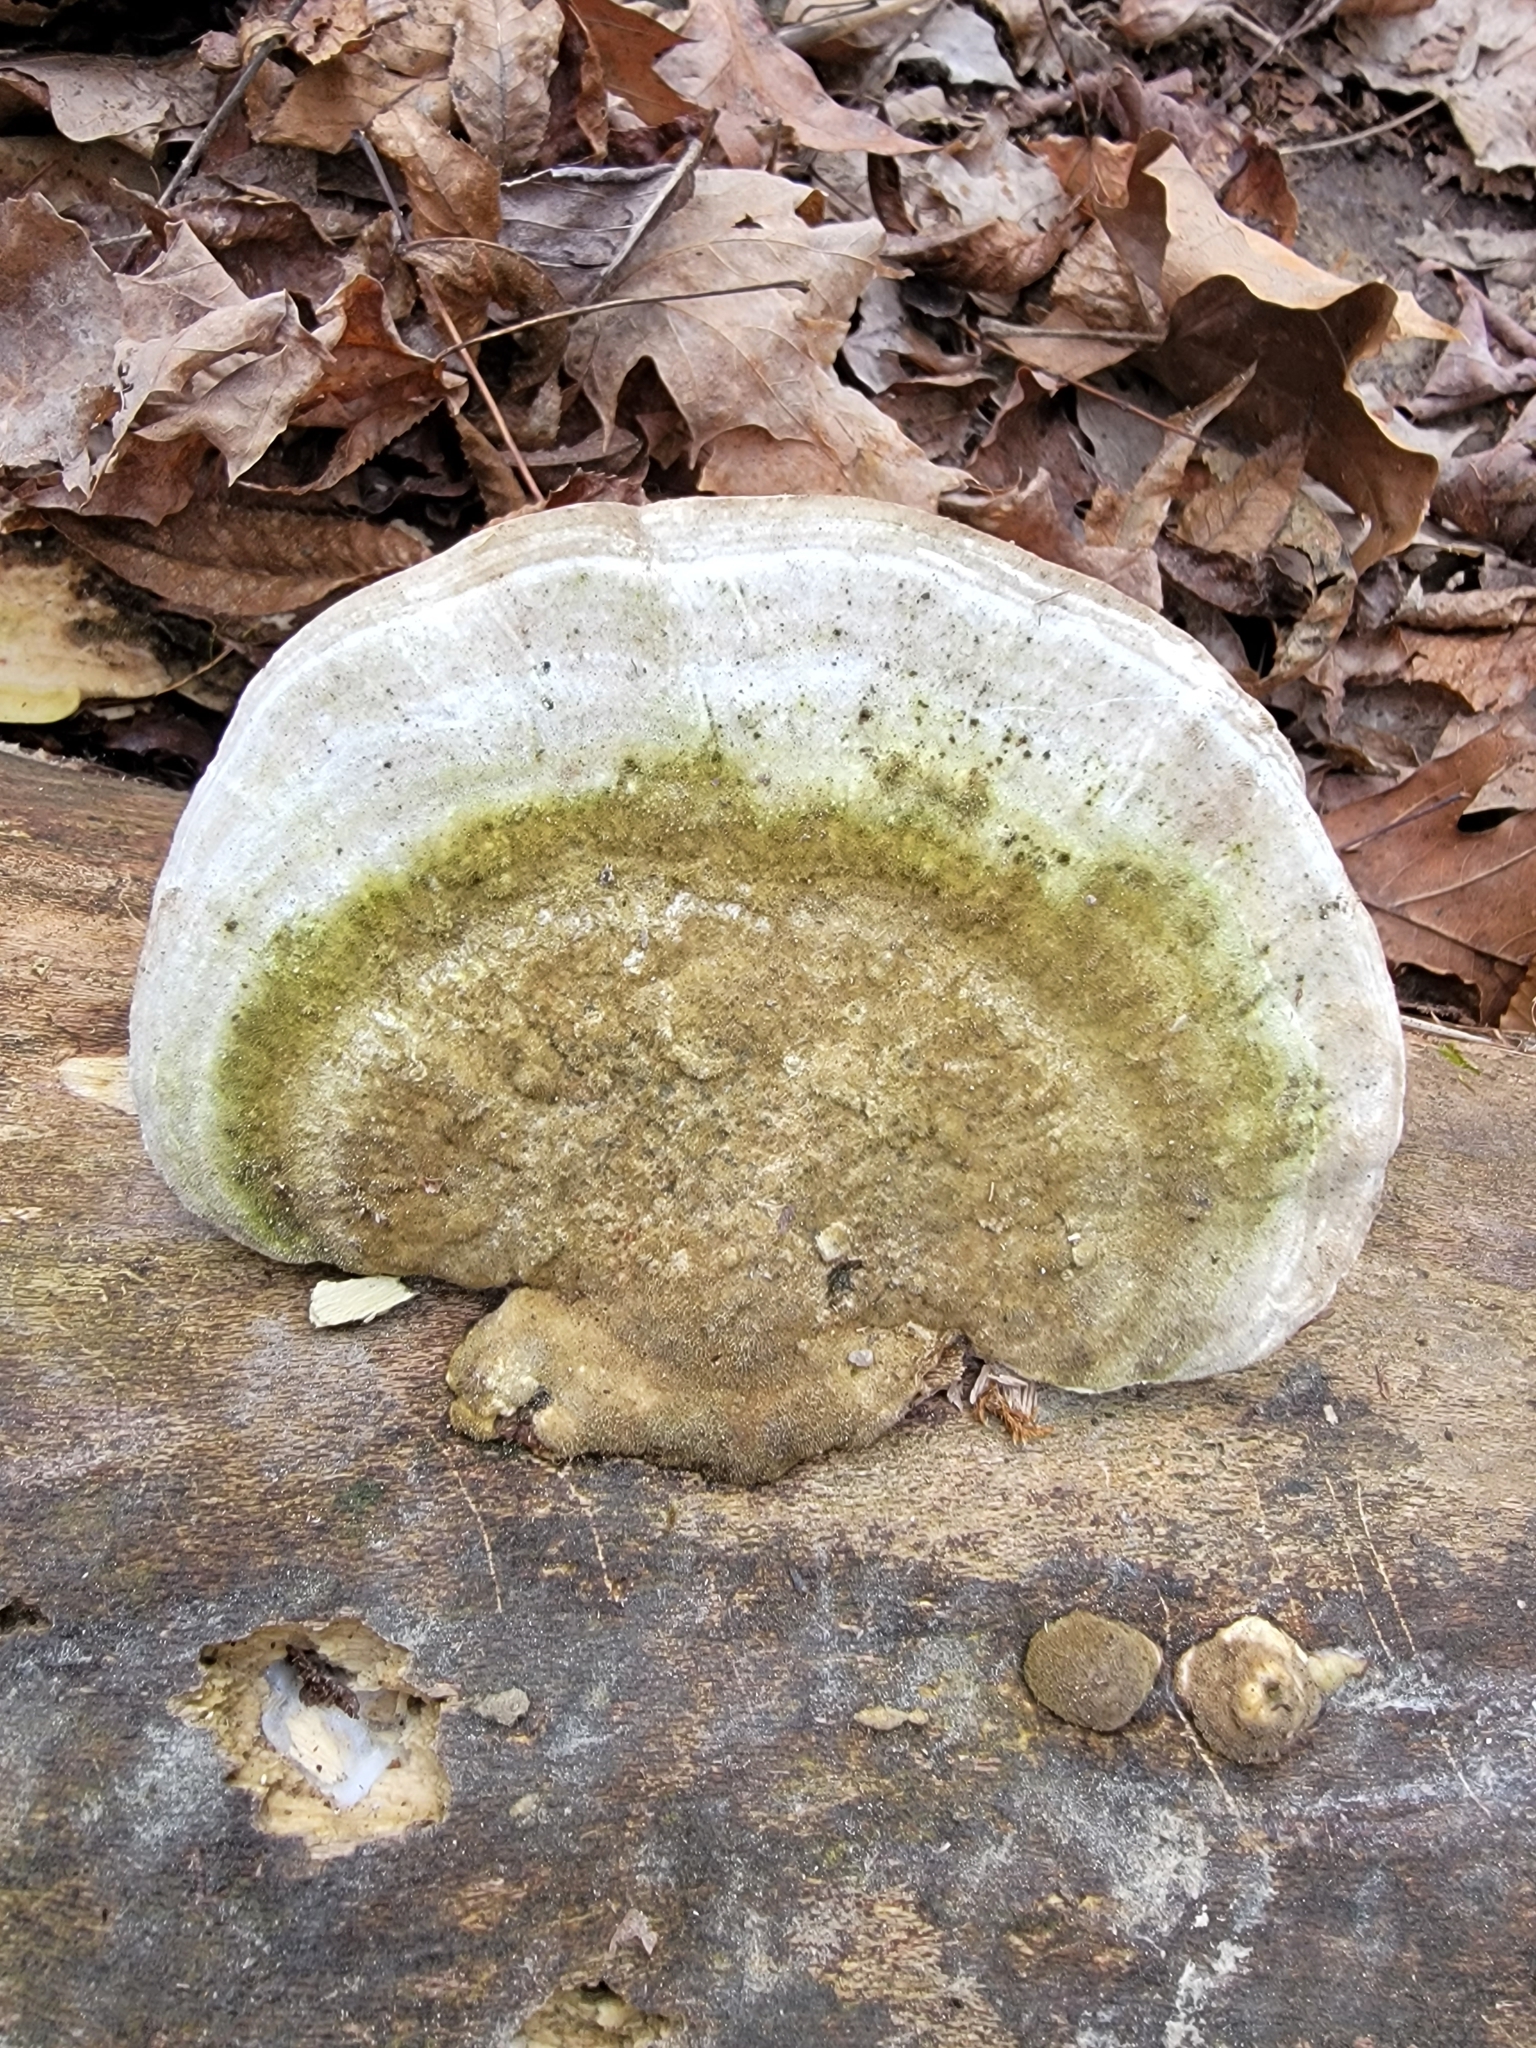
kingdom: Fungi
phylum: Basidiomycota
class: Agaricomycetes
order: Polyporales
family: Polyporaceae
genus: Trametes
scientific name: Trametes gibbosa
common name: Lumpy bracket
